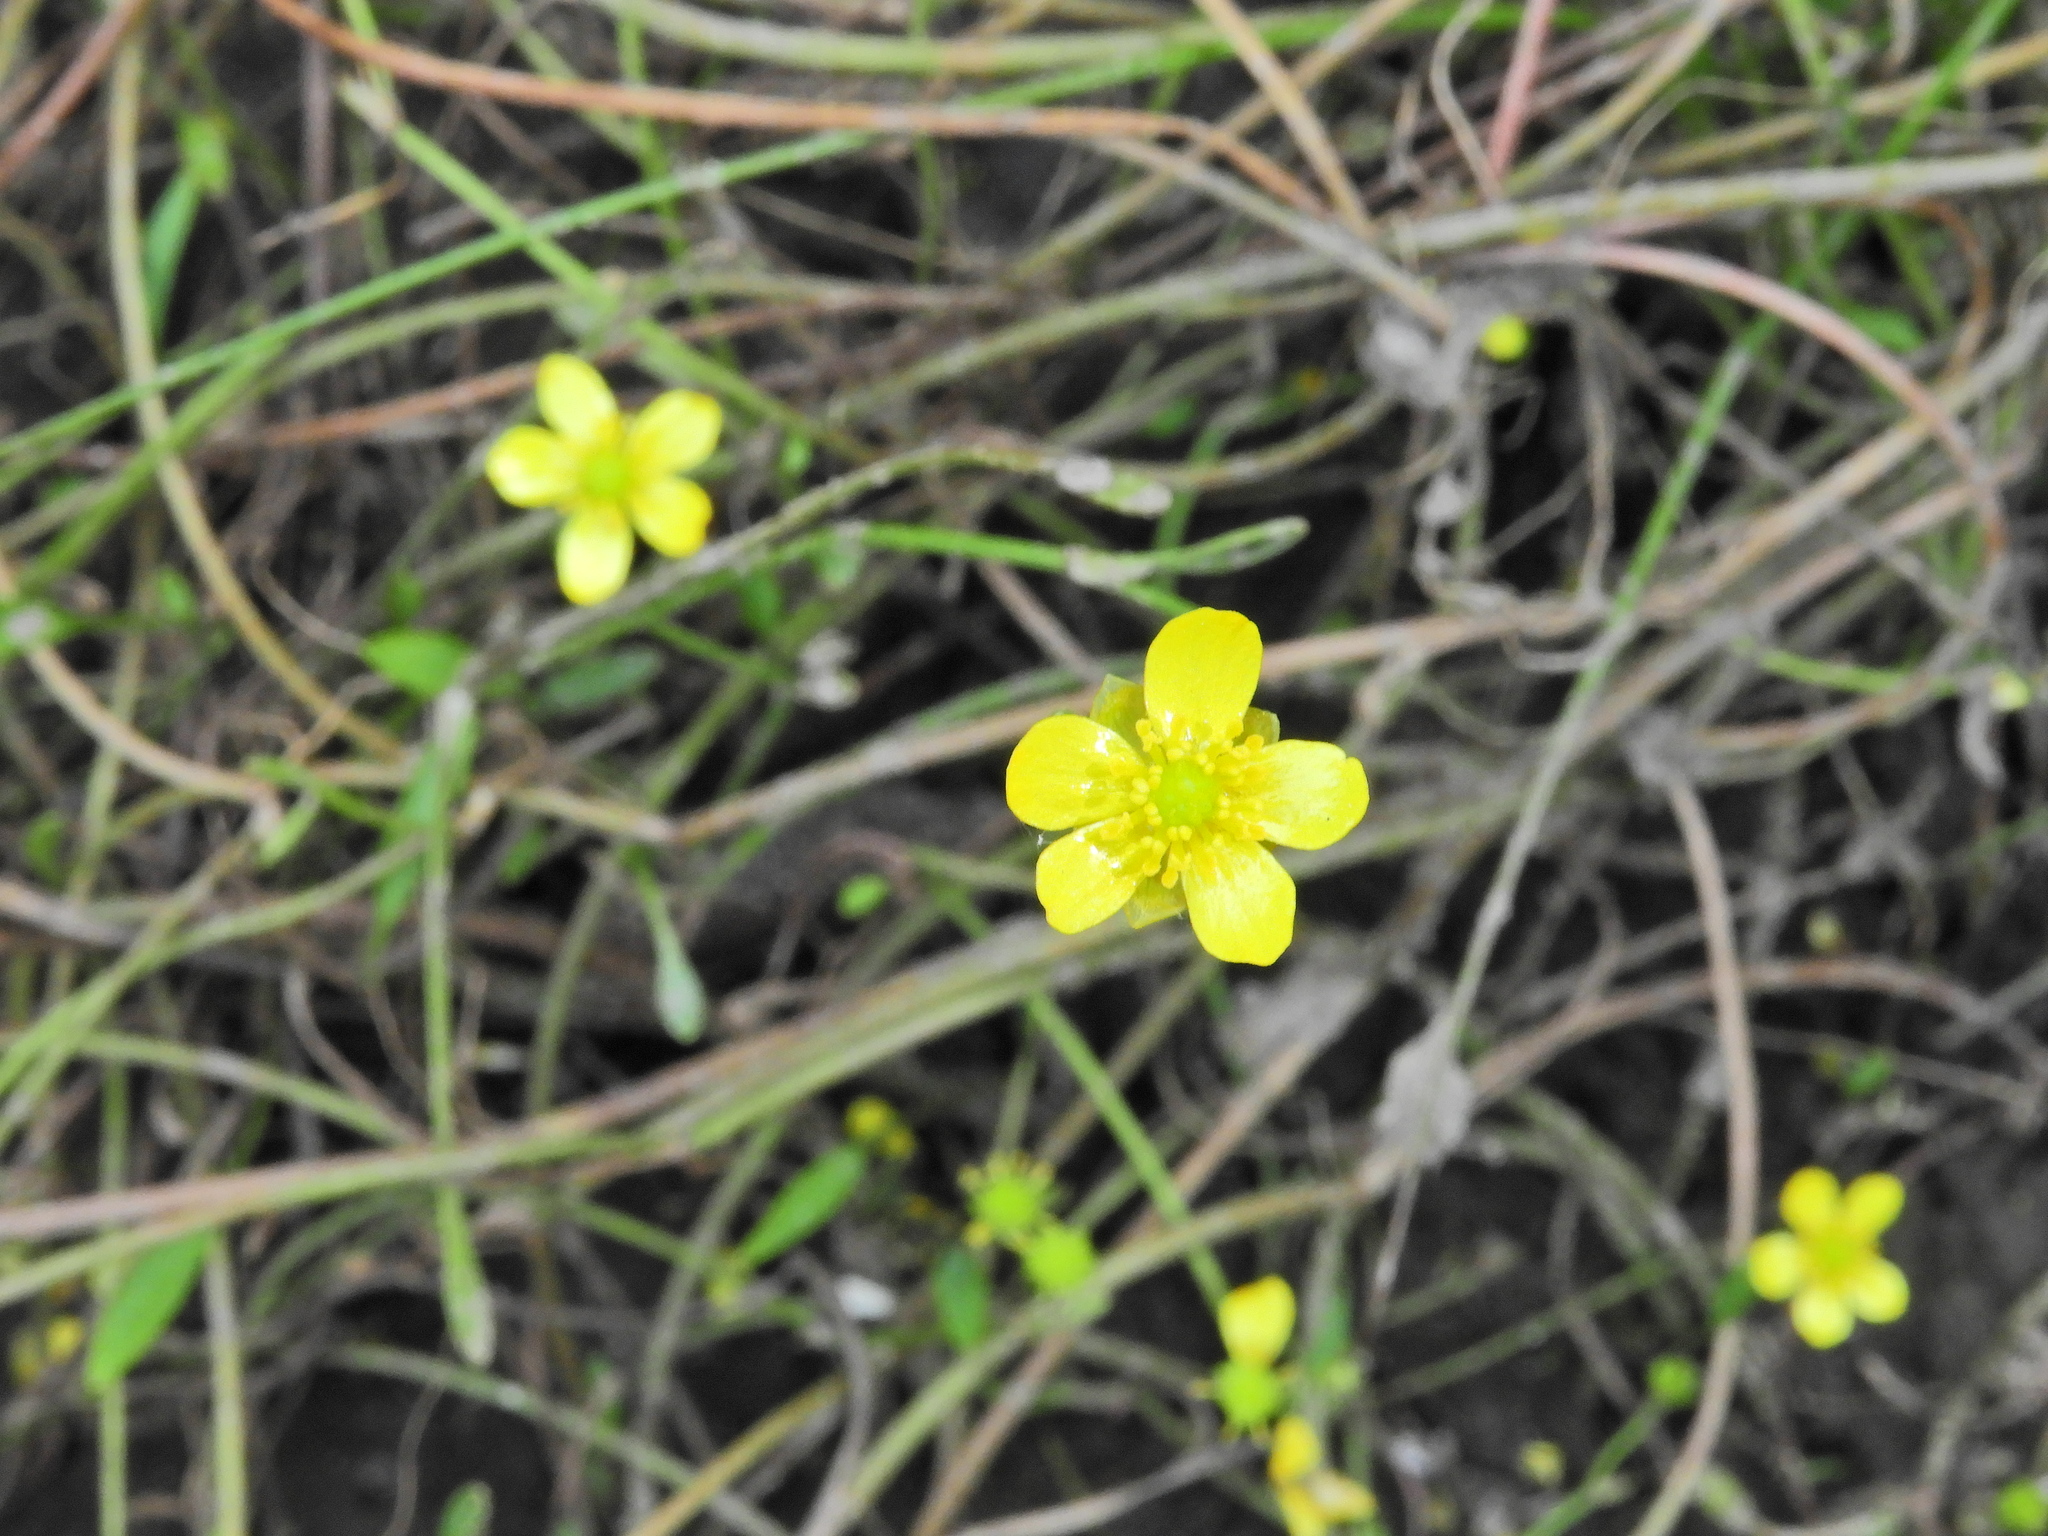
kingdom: Plantae
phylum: Tracheophyta
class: Magnoliopsida
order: Ranunculales
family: Ranunculaceae
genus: Ranunculus
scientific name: Ranunculus flammula
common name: Lesser spearwort
